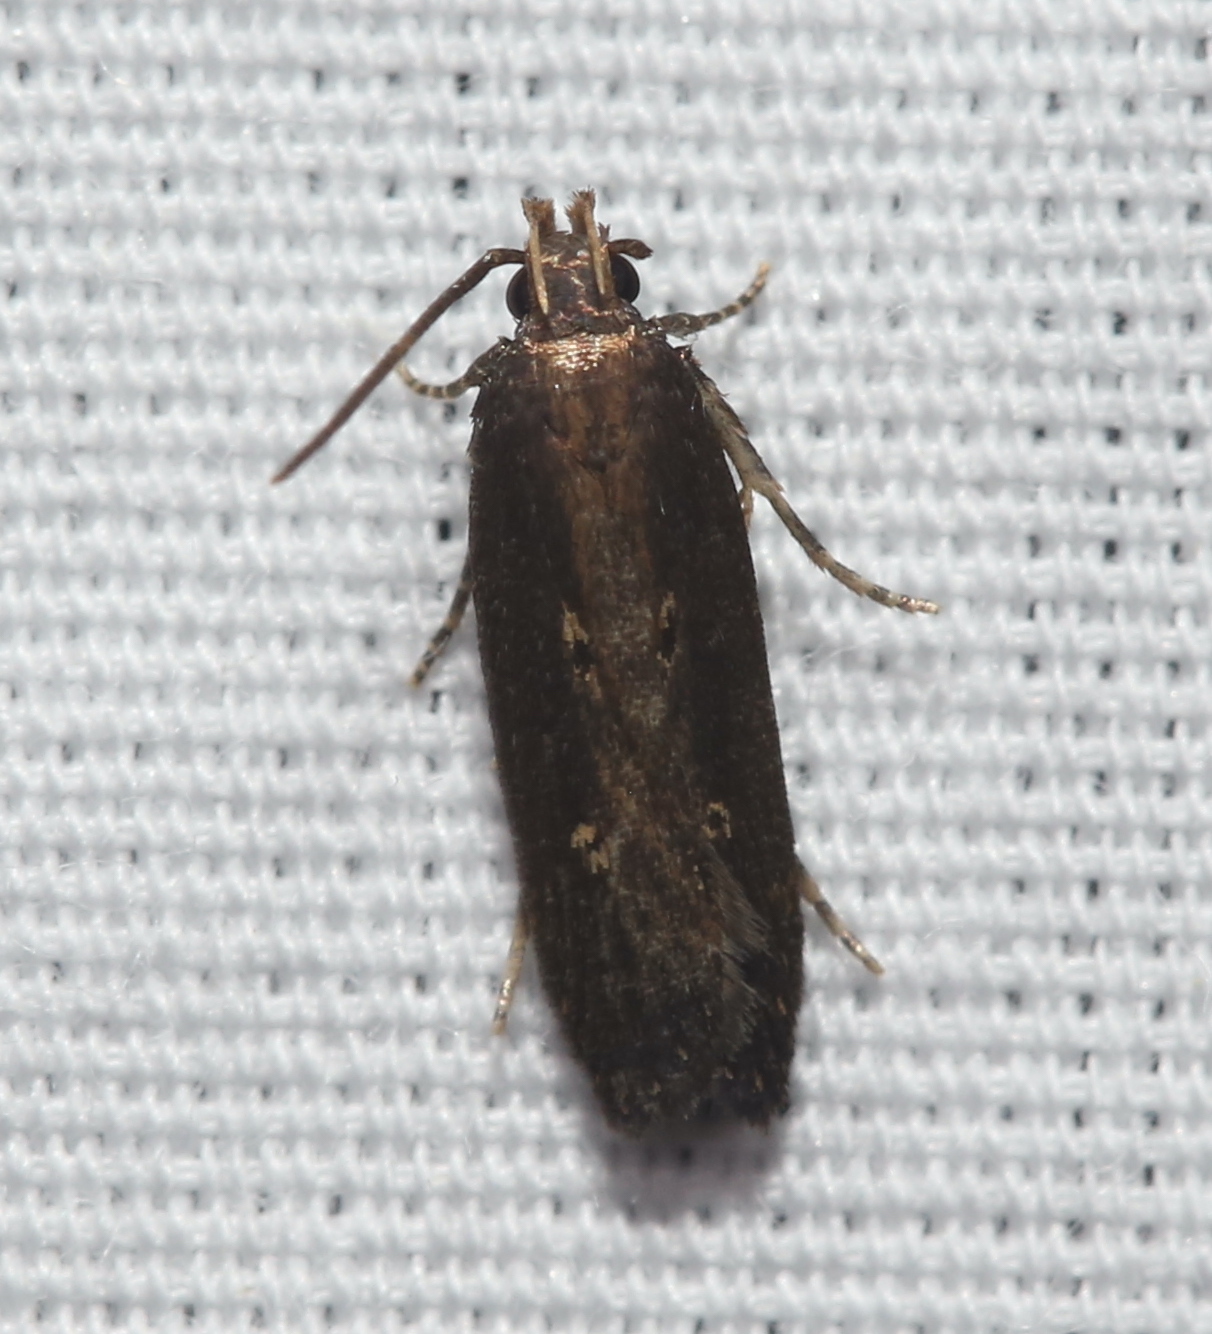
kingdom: Animalia
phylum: Arthropoda
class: Insecta
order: Lepidoptera
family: Gelechiidae
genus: Chionodes
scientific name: Chionodes discoocellella
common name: Eye-ringed chionodes moth
